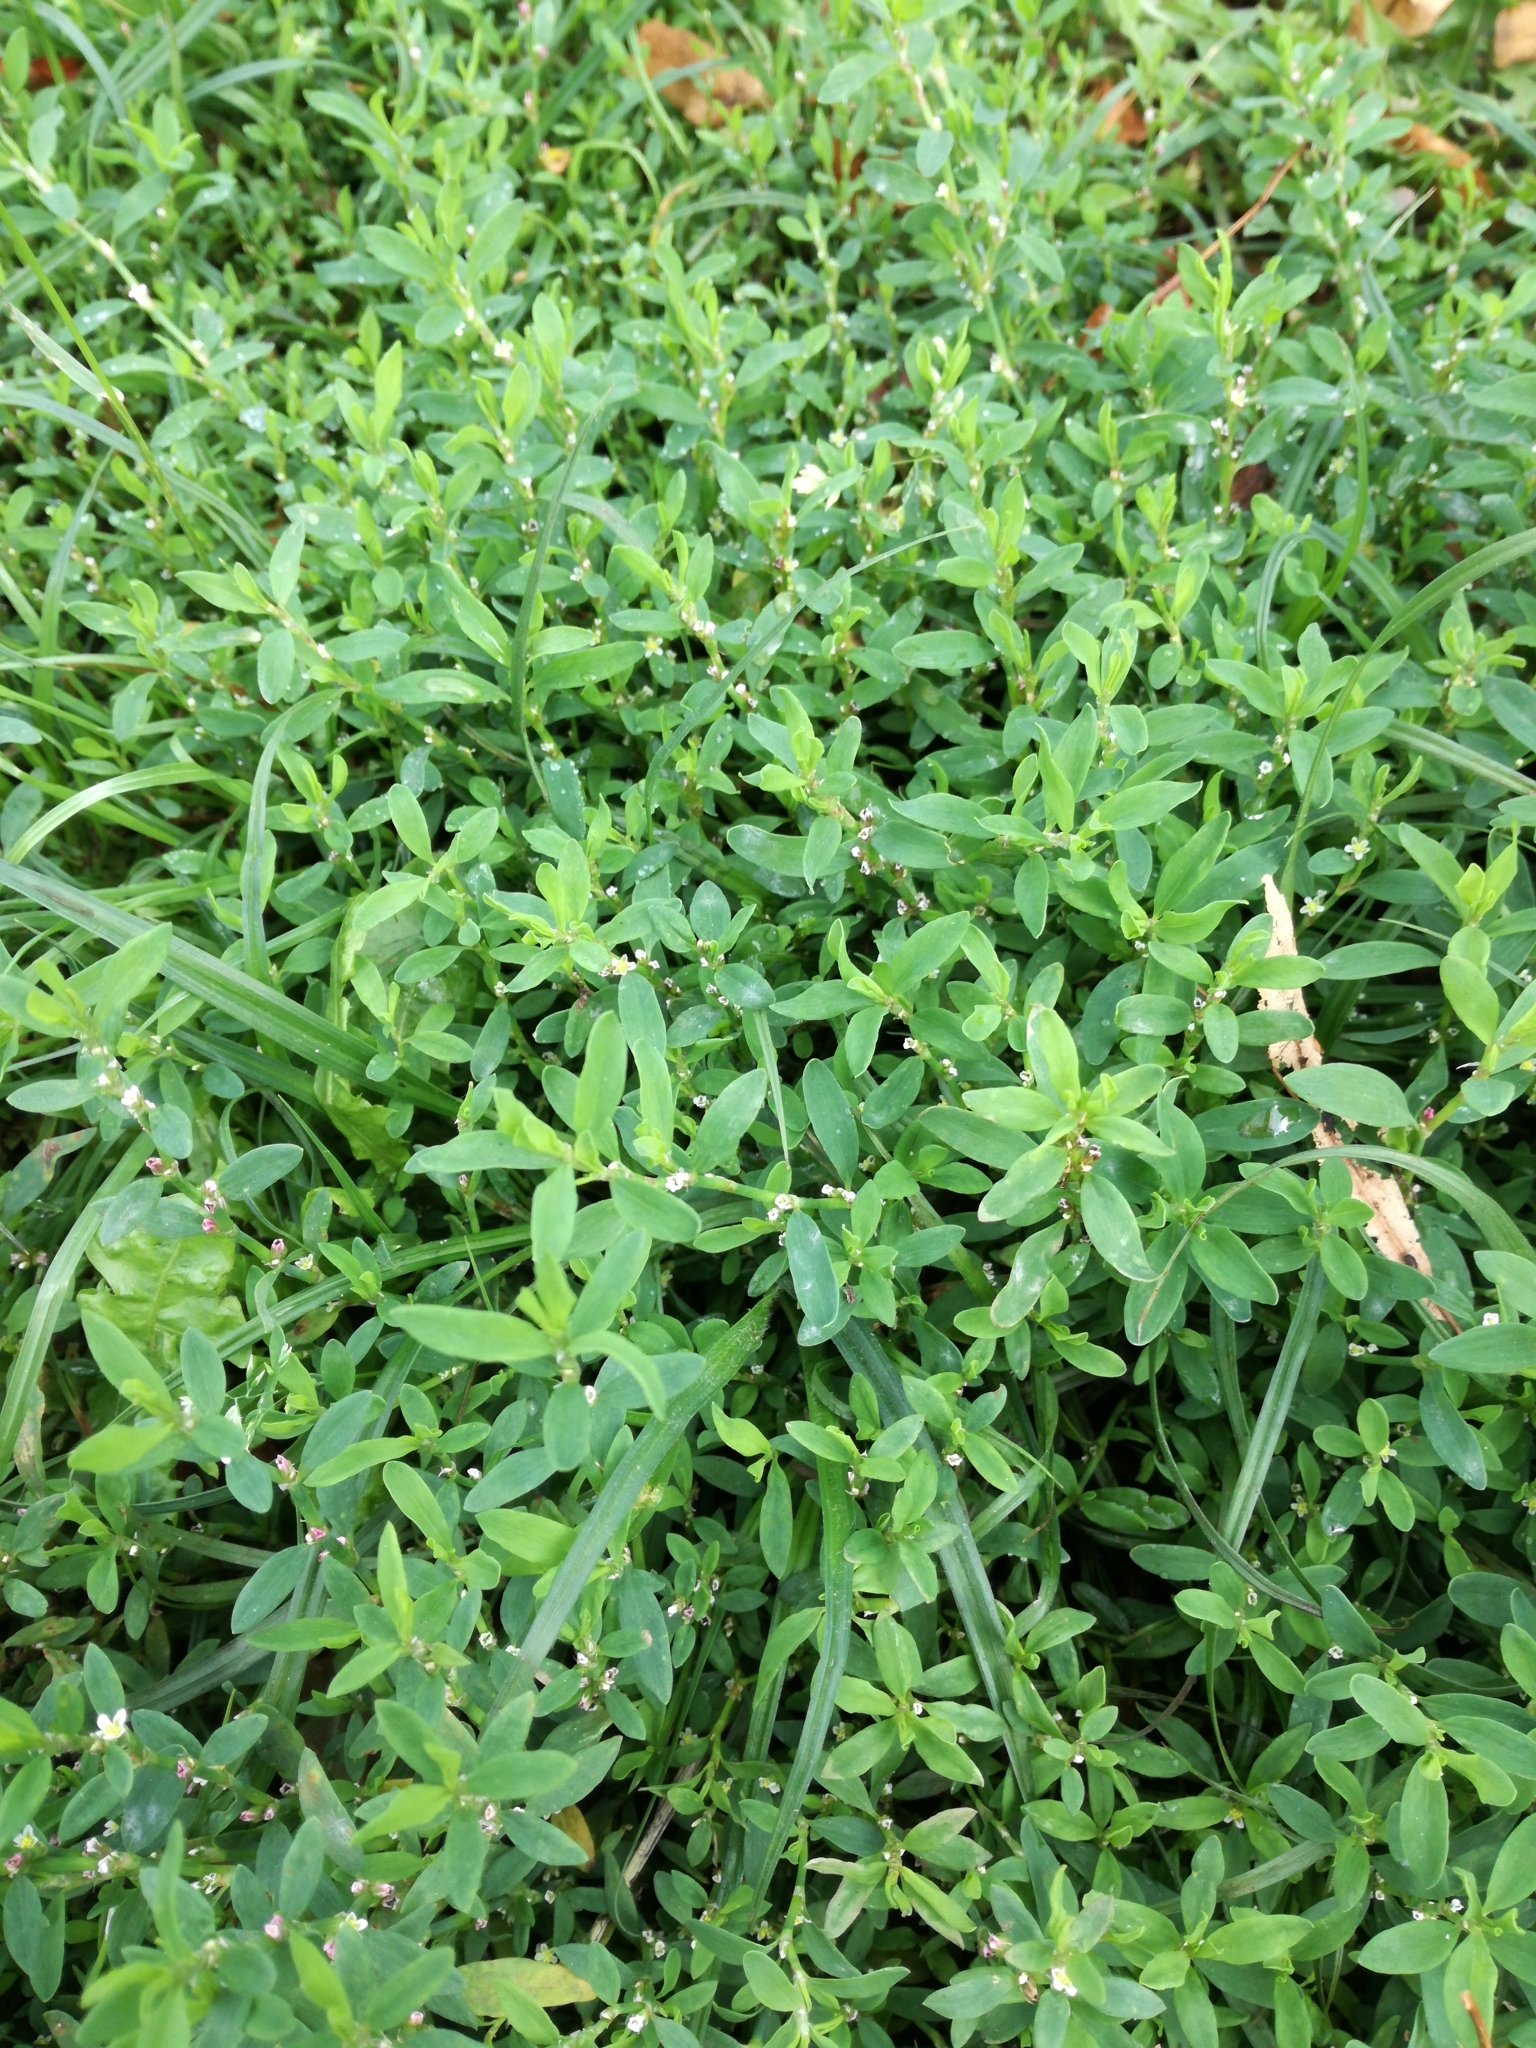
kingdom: Plantae
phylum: Tracheophyta
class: Magnoliopsida
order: Caryophyllales
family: Polygonaceae
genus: Polygonum
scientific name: Polygonum aviculare
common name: Prostrate knotweed
